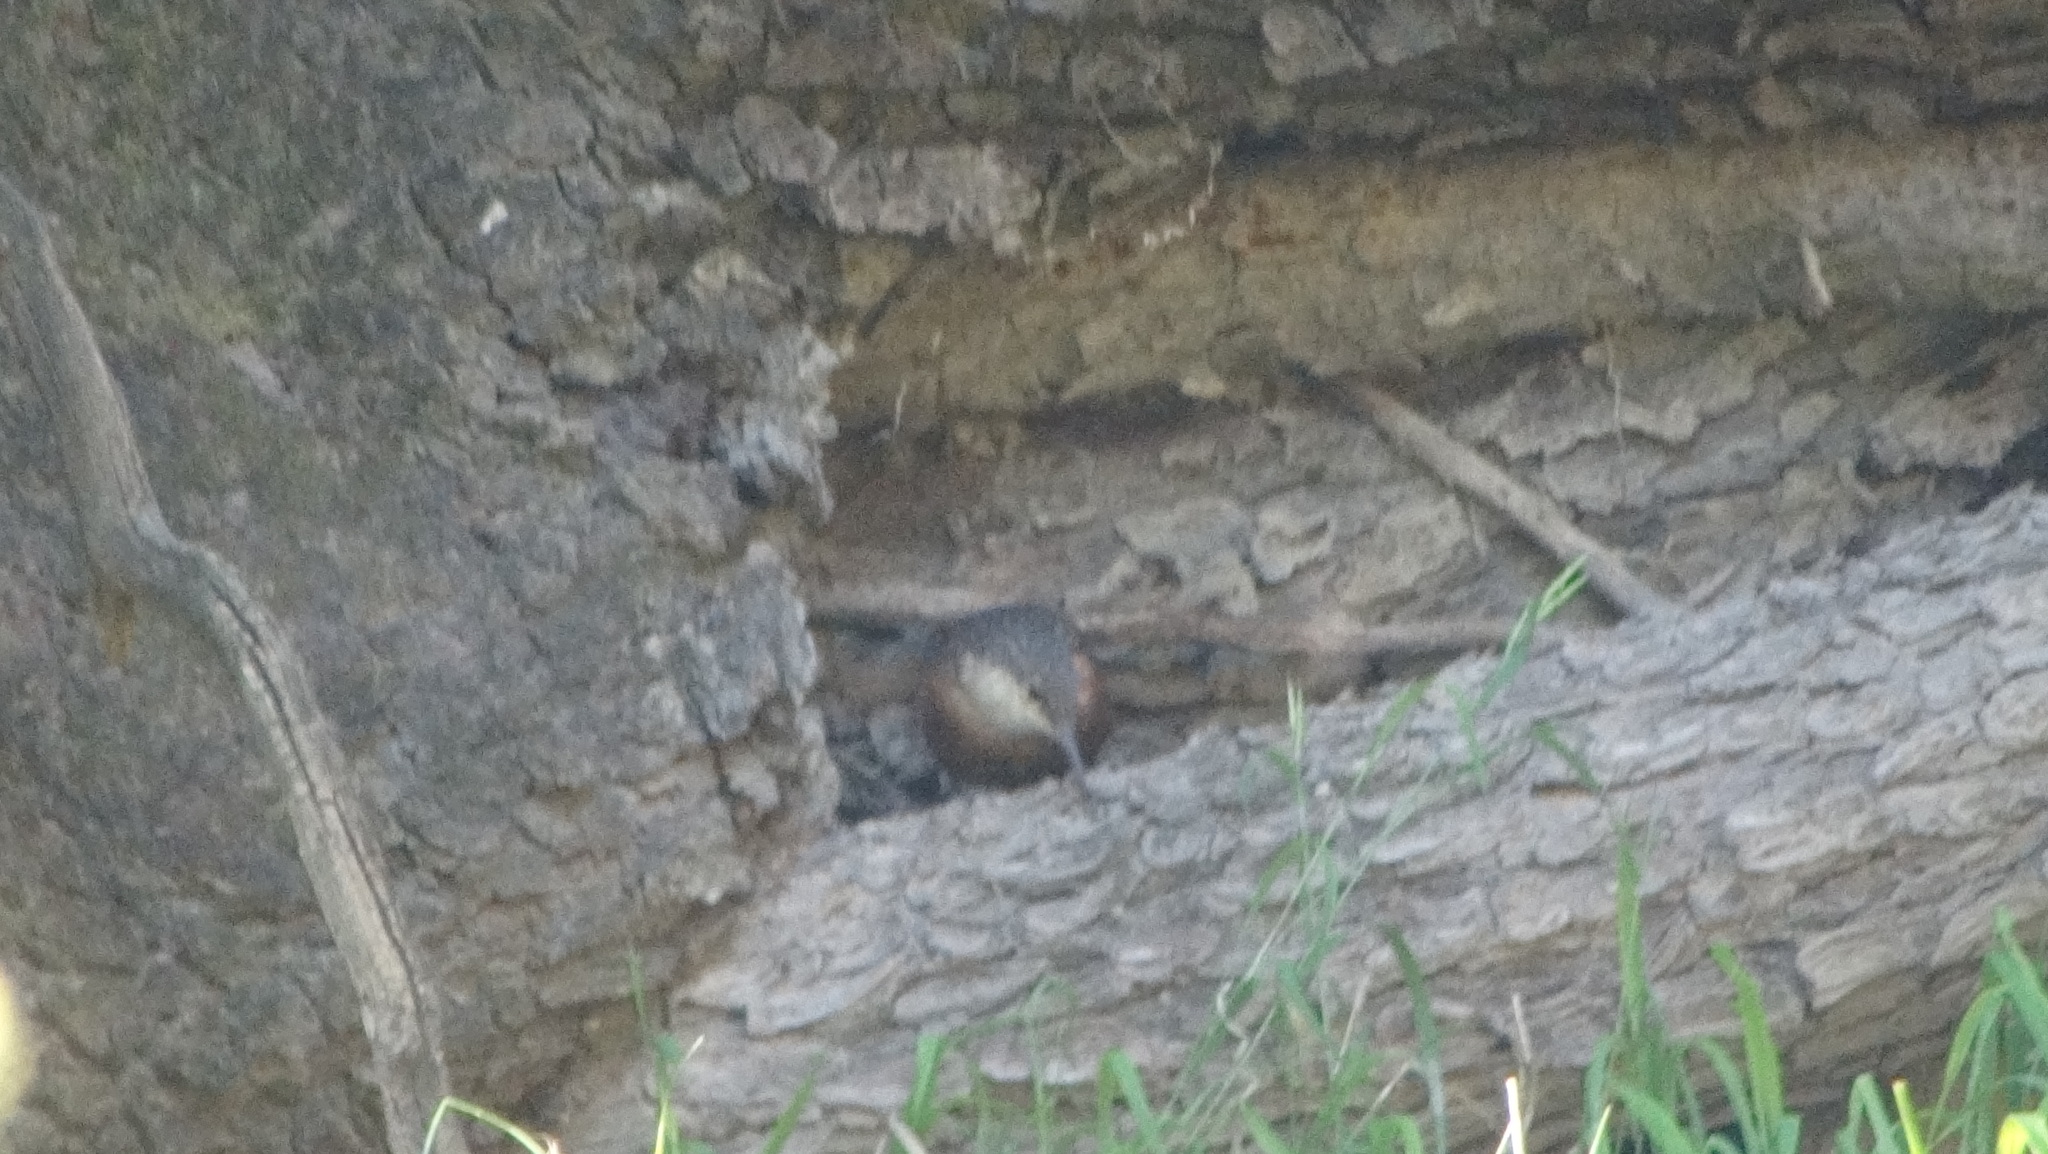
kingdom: Animalia
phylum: Chordata
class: Aves
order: Passeriformes
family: Troglodytidae
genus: Catherpes
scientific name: Catherpes mexicanus
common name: Canyon wren
